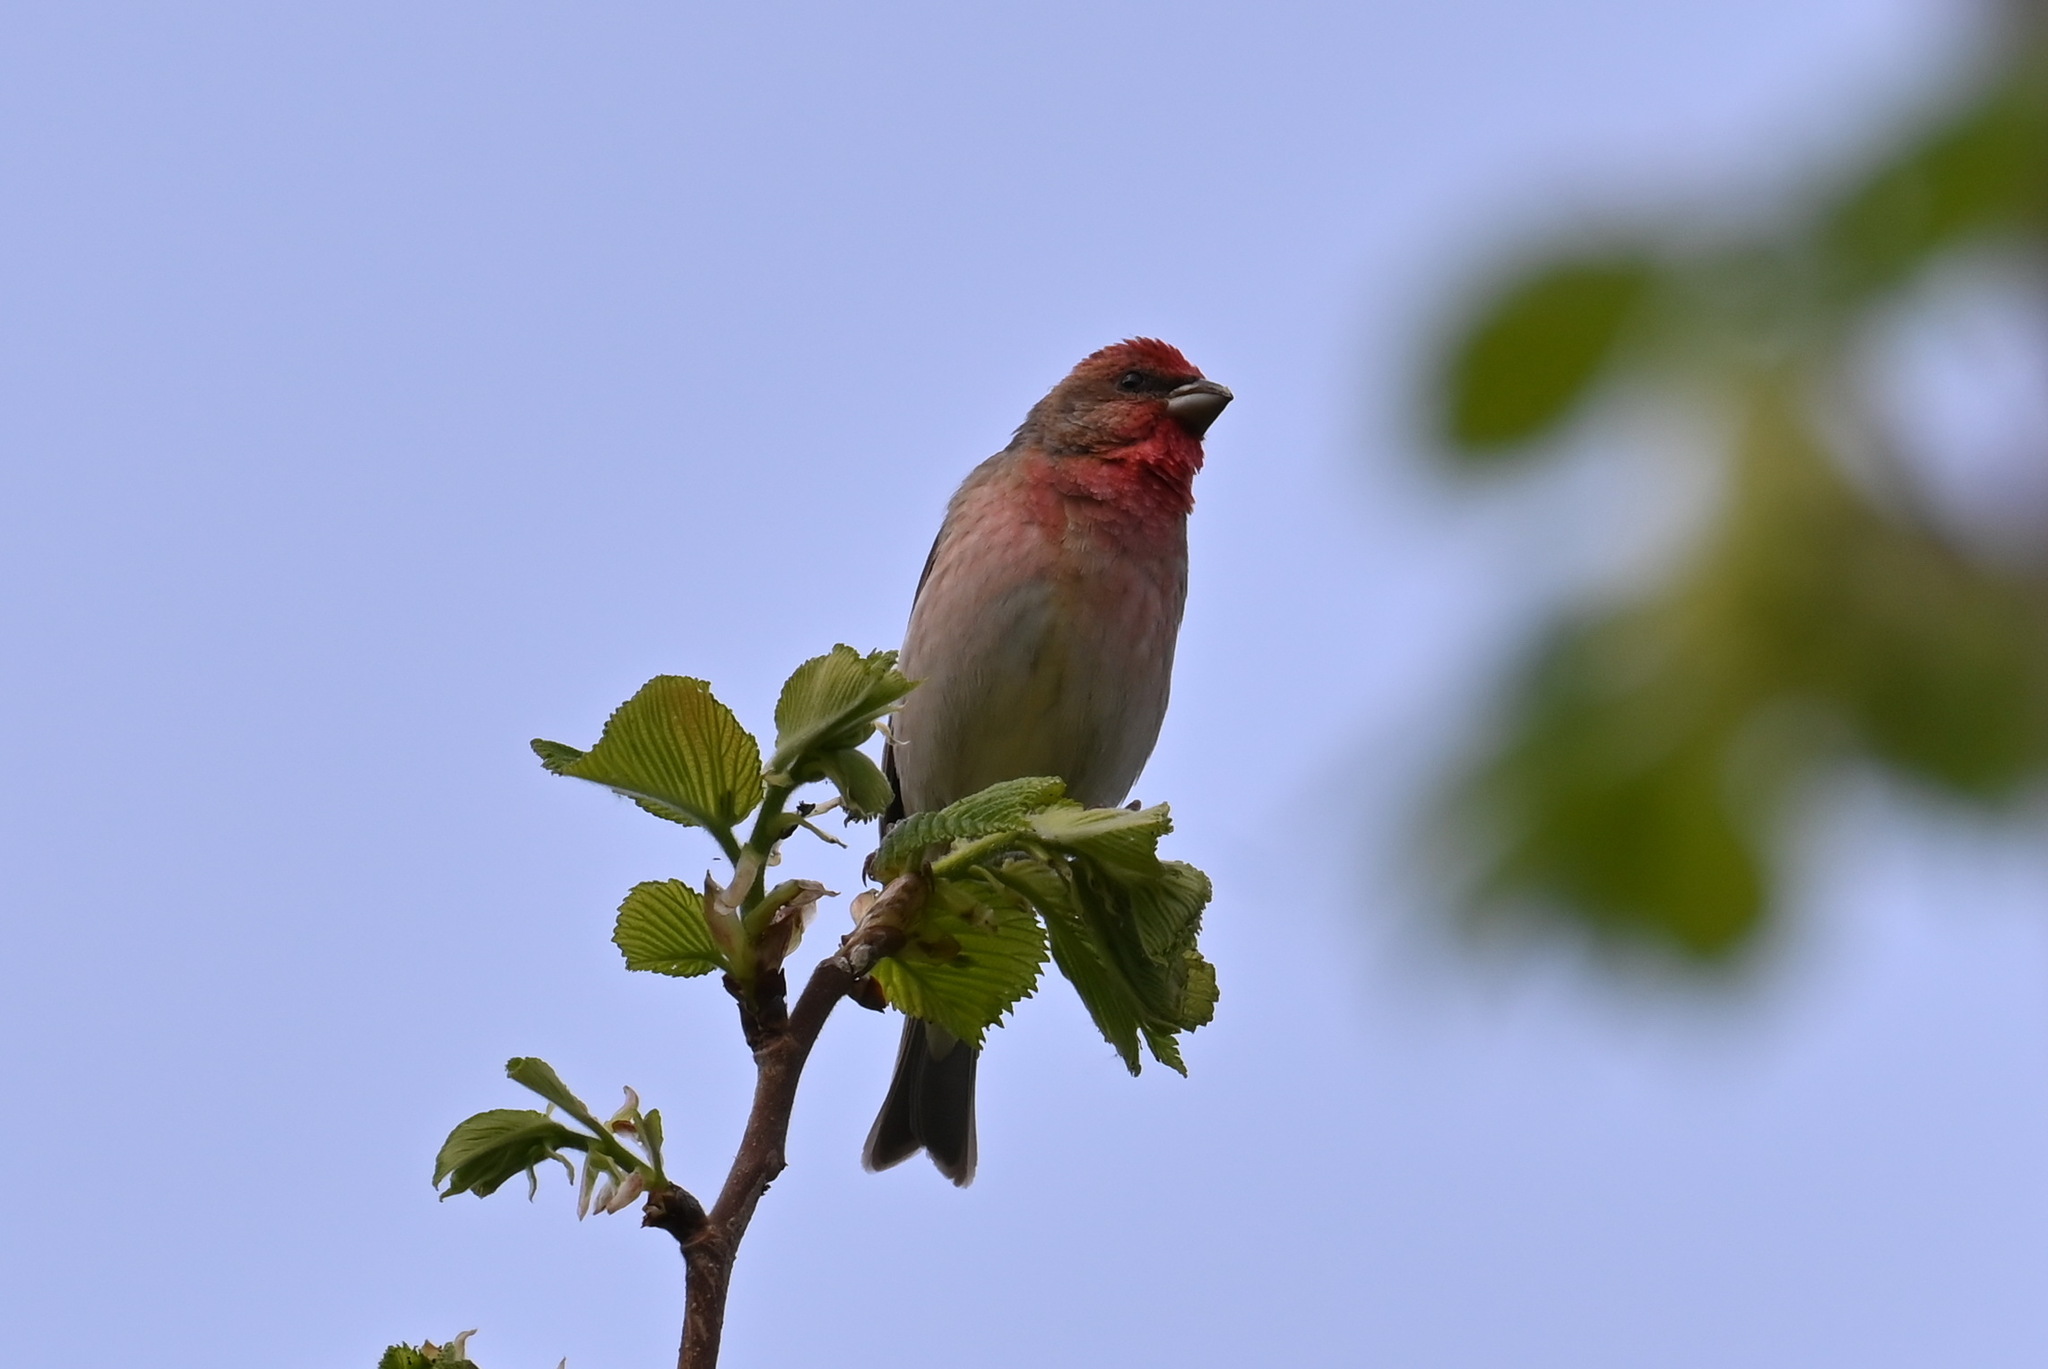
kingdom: Animalia
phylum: Chordata
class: Aves
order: Passeriformes
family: Fringillidae
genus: Carpodacus
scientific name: Carpodacus erythrinus
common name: Common rosefinch
